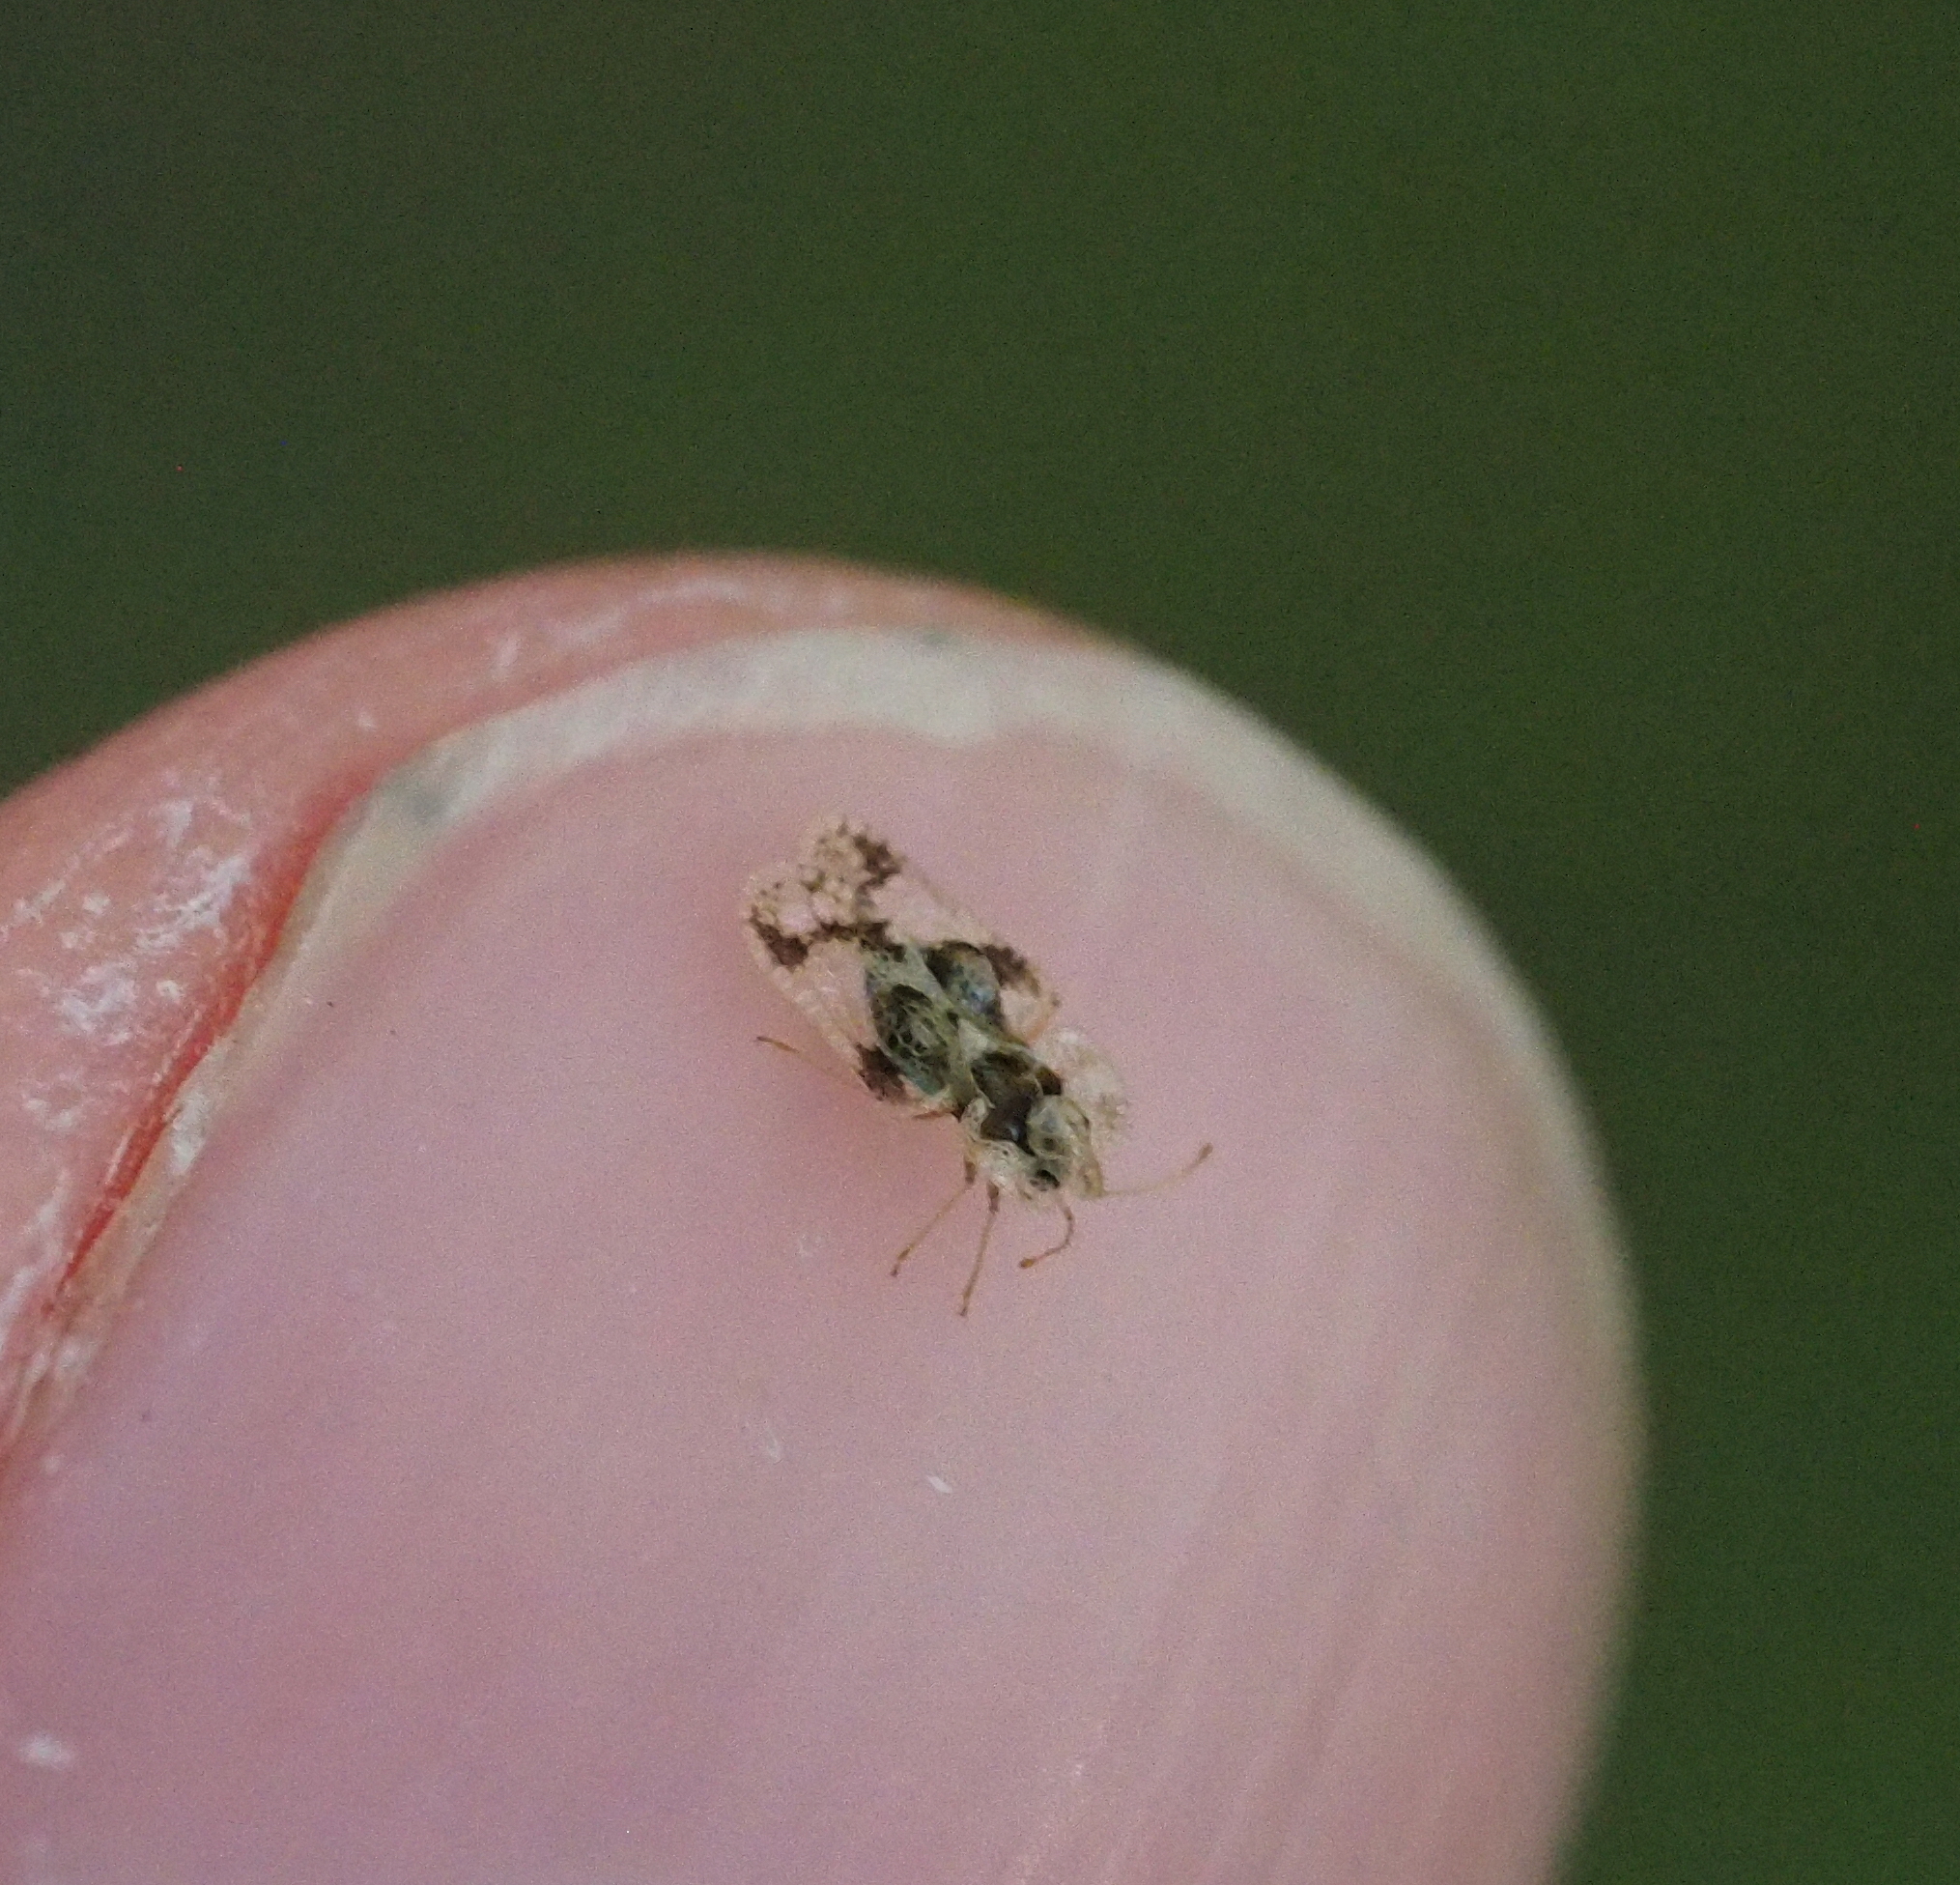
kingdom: Animalia
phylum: Arthropoda
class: Insecta
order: Hemiptera
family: Tingidae
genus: Corythucha
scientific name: Corythucha arcuata
